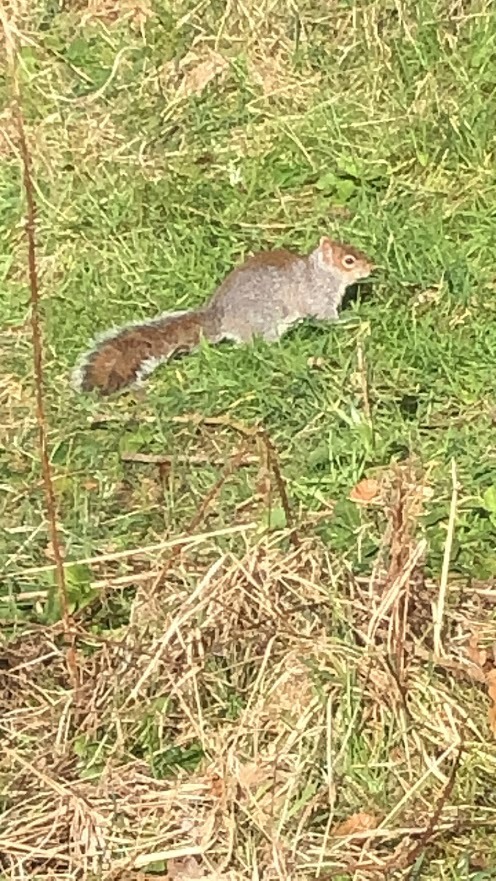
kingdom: Animalia
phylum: Chordata
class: Mammalia
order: Rodentia
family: Sciuridae
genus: Sciurus
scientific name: Sciurus carolinensis
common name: Eastern gray squirrel
